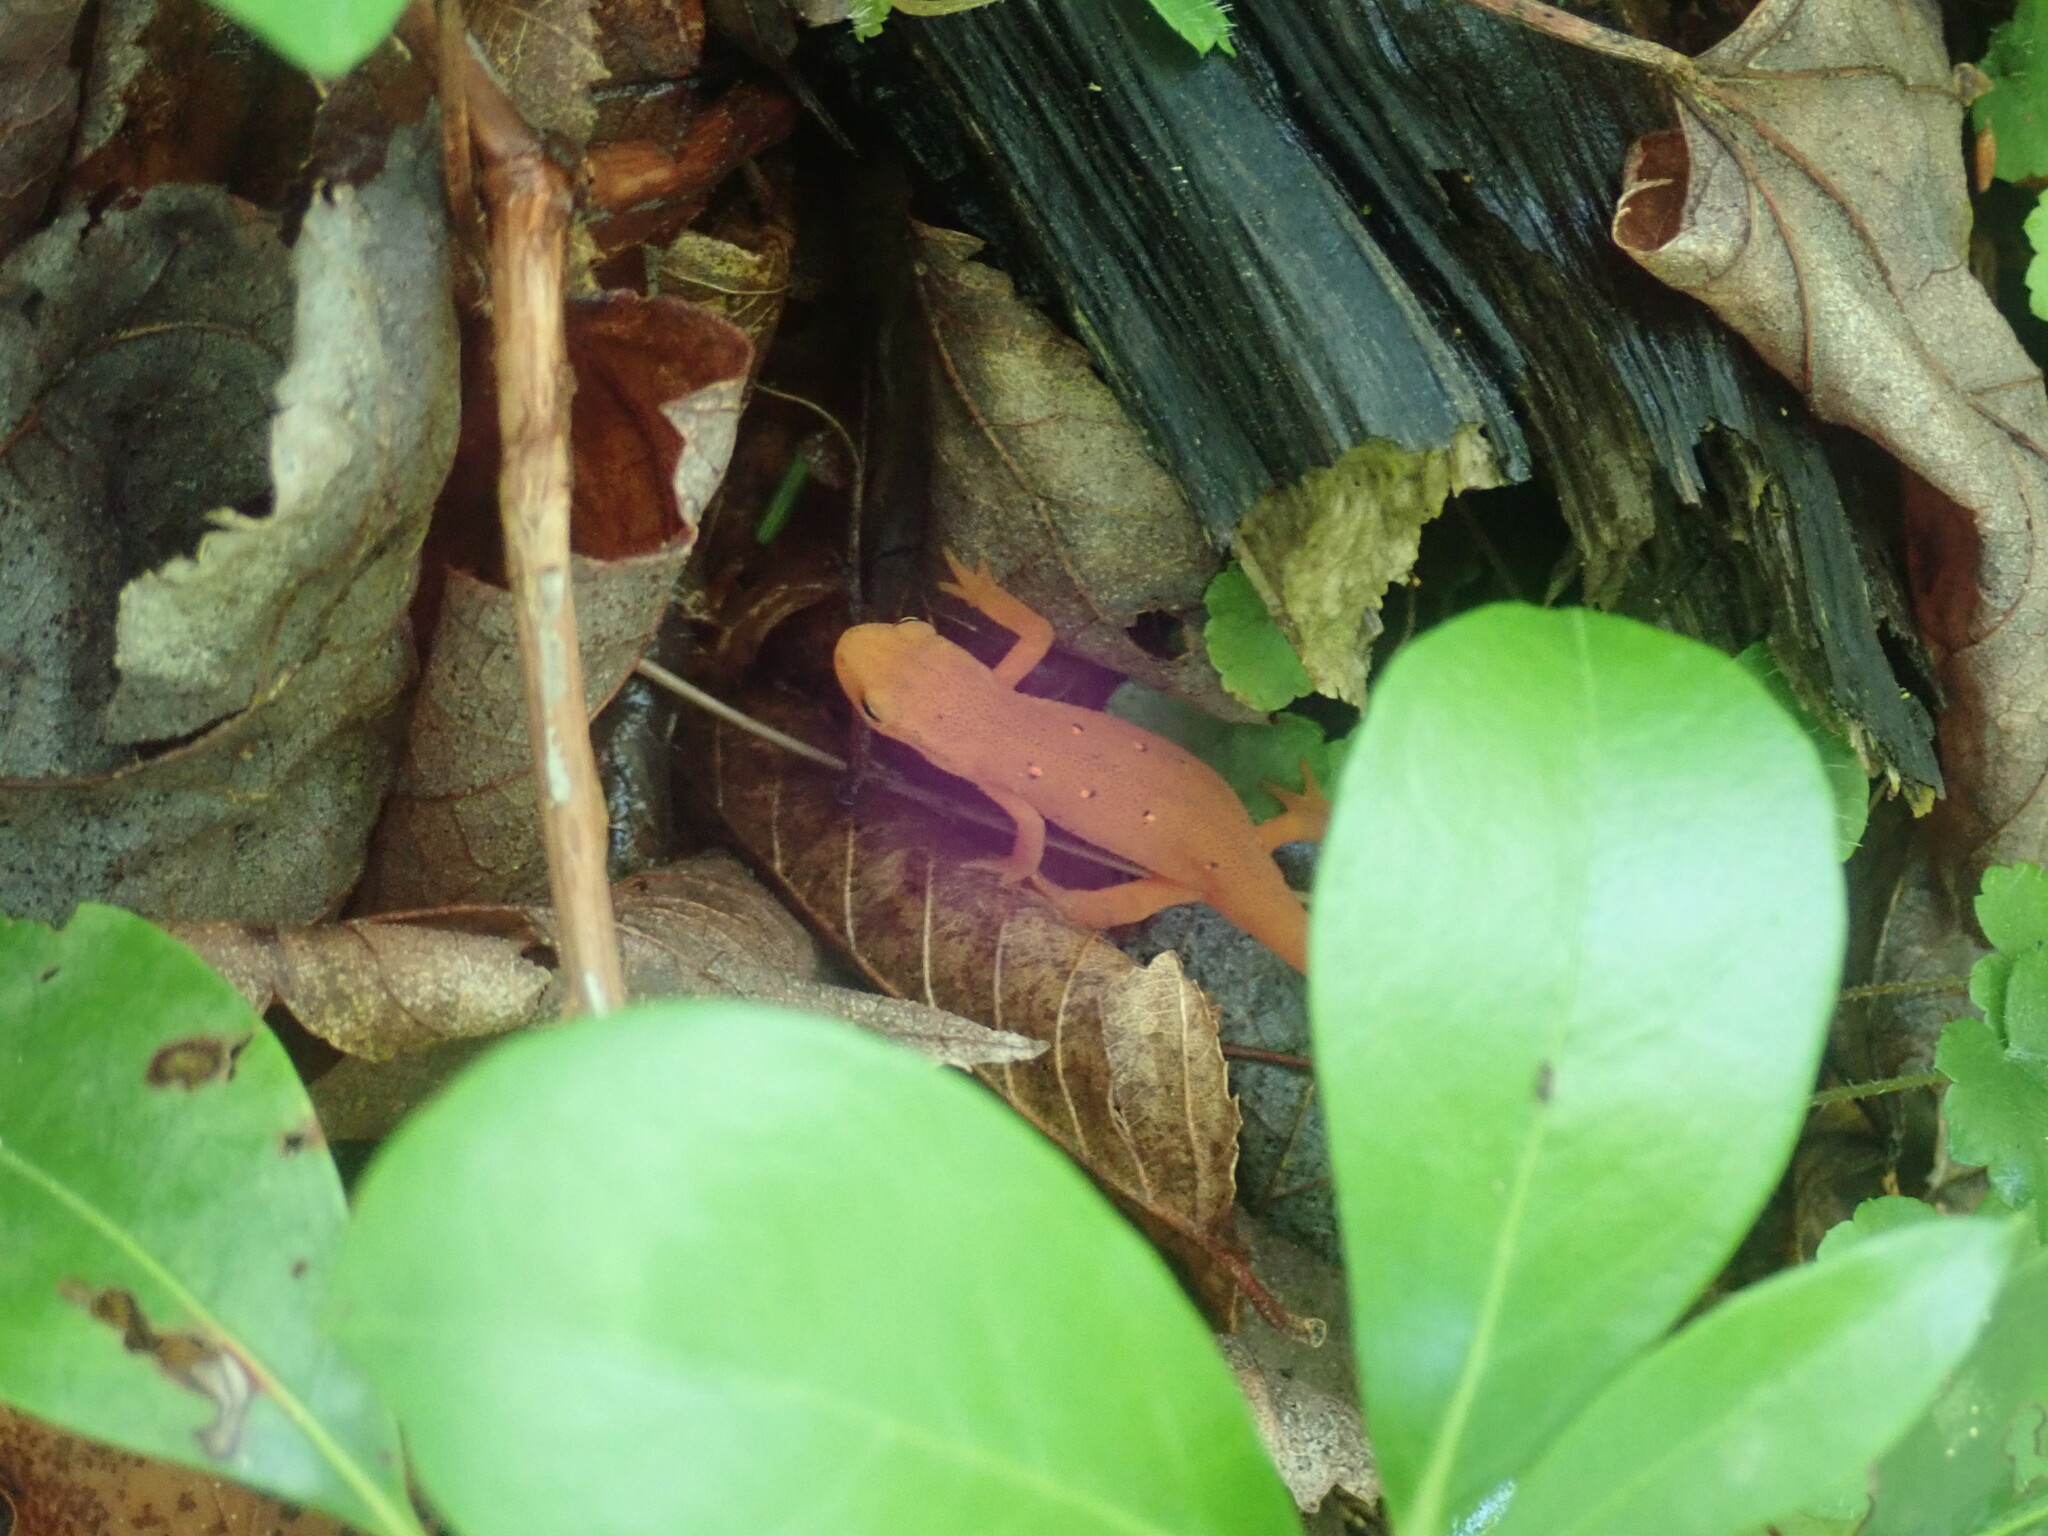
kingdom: Animalia
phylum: Chordata
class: Amphibia
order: Caudata
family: Salamandridae
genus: Notophthalmus
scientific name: Notophthalmus viridescens
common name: Eastern newt
